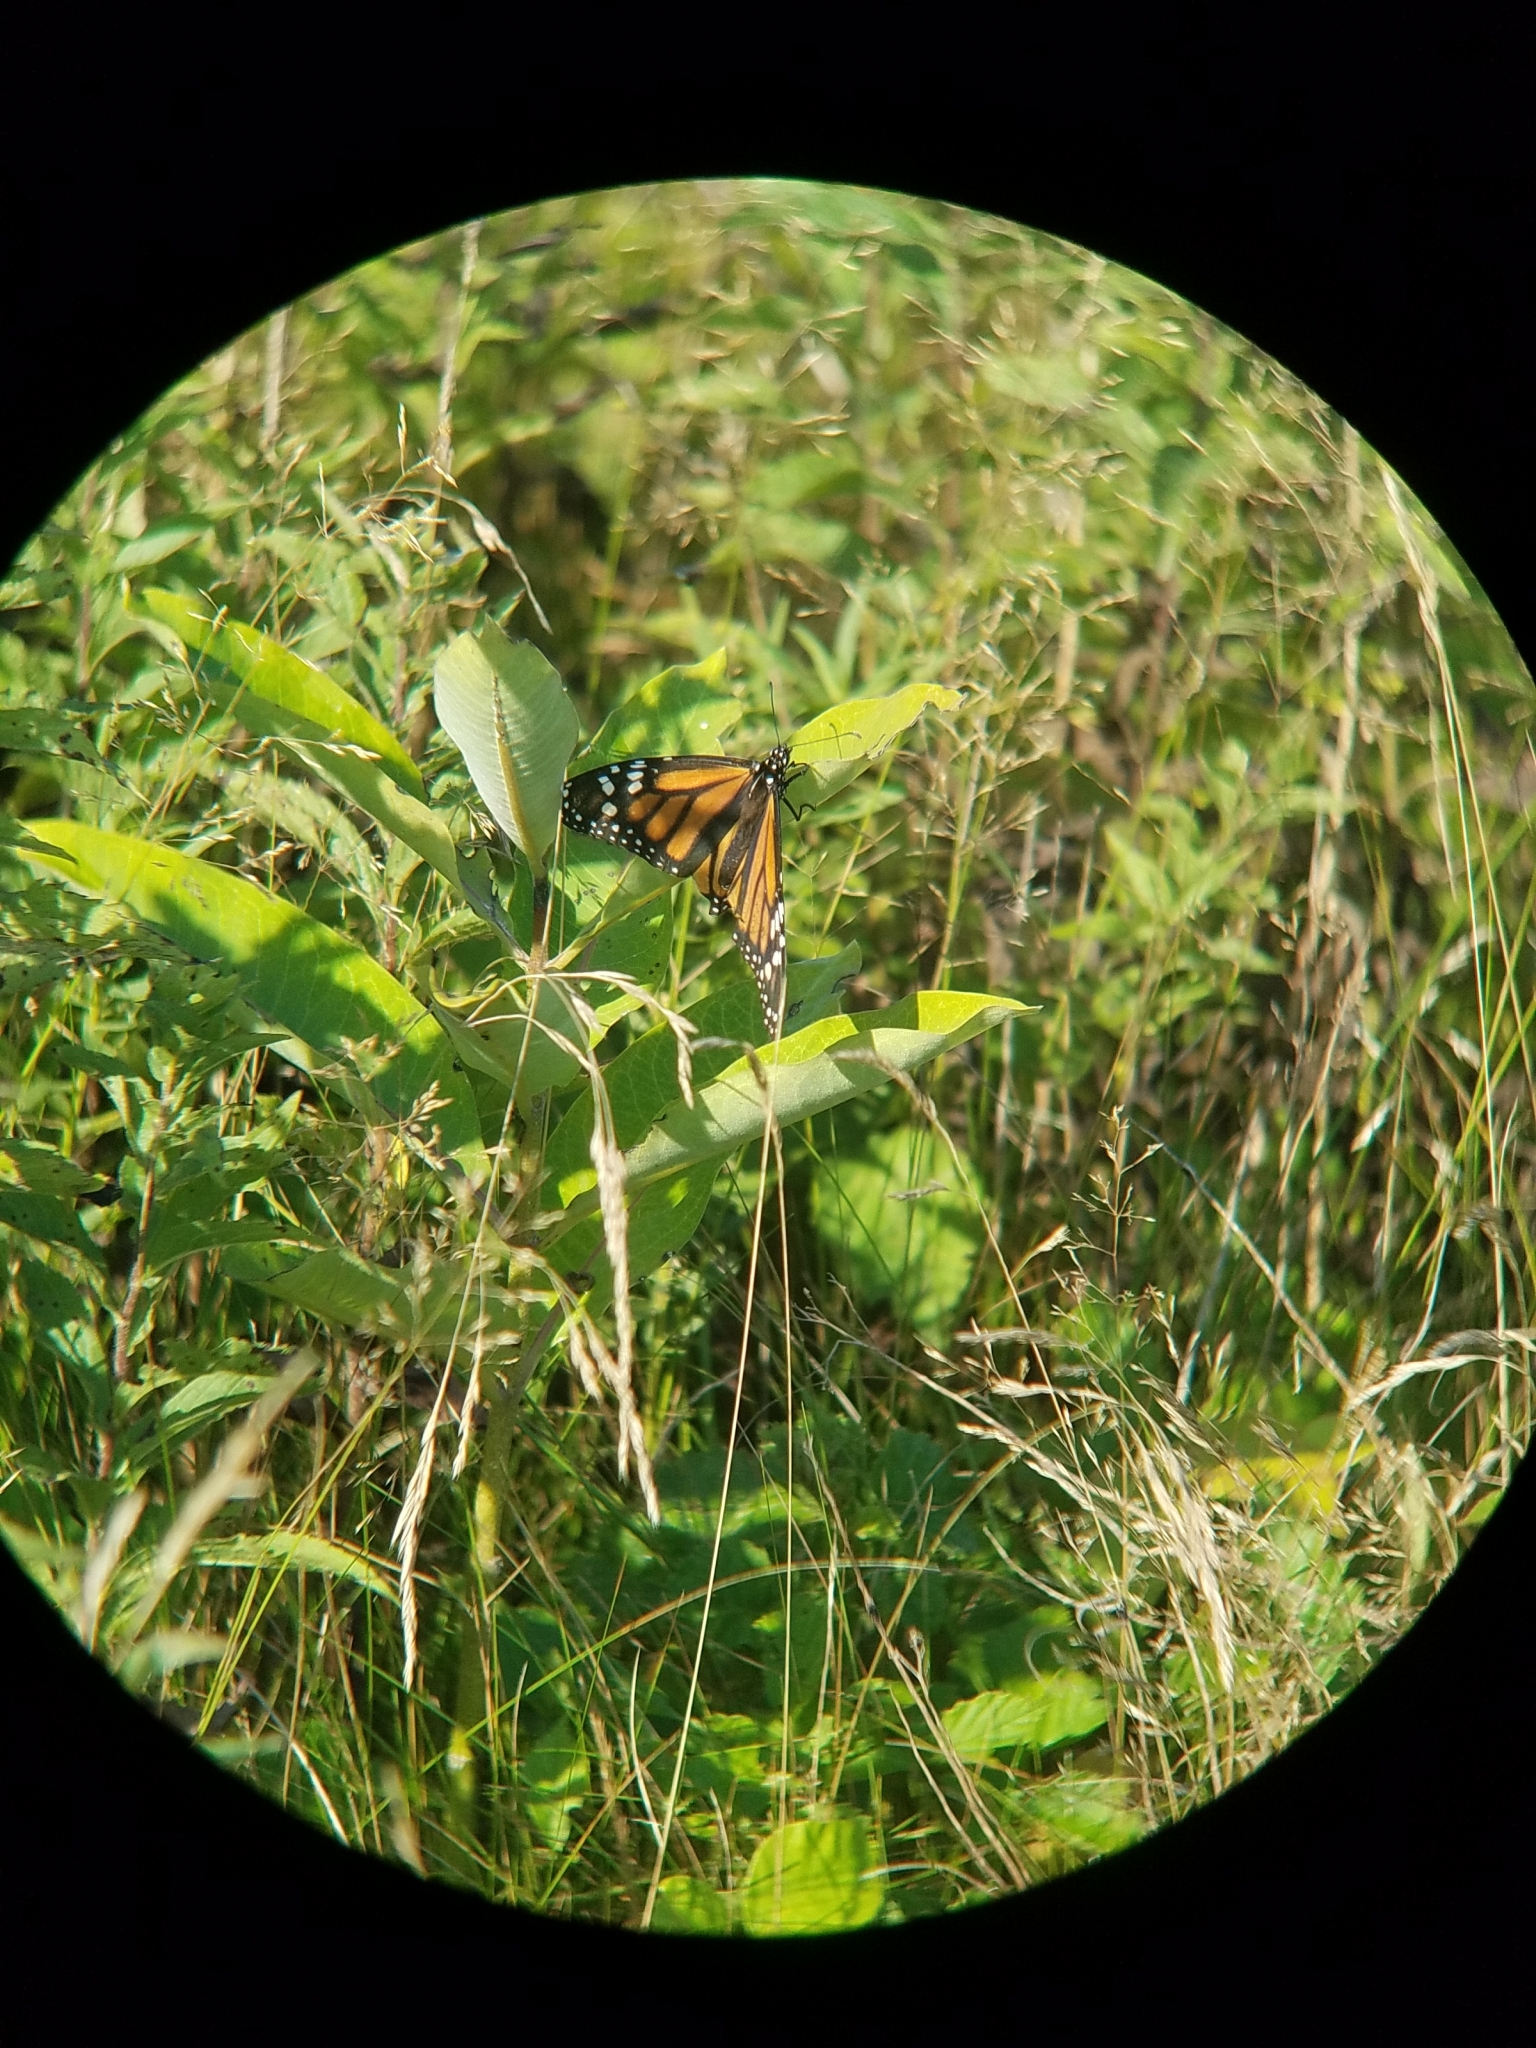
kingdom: Animalia
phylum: Arthropoda
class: Insecta
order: Lepidoptera
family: Nymphalidae
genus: Danaus
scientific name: Danaus plexippus
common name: Monarch
